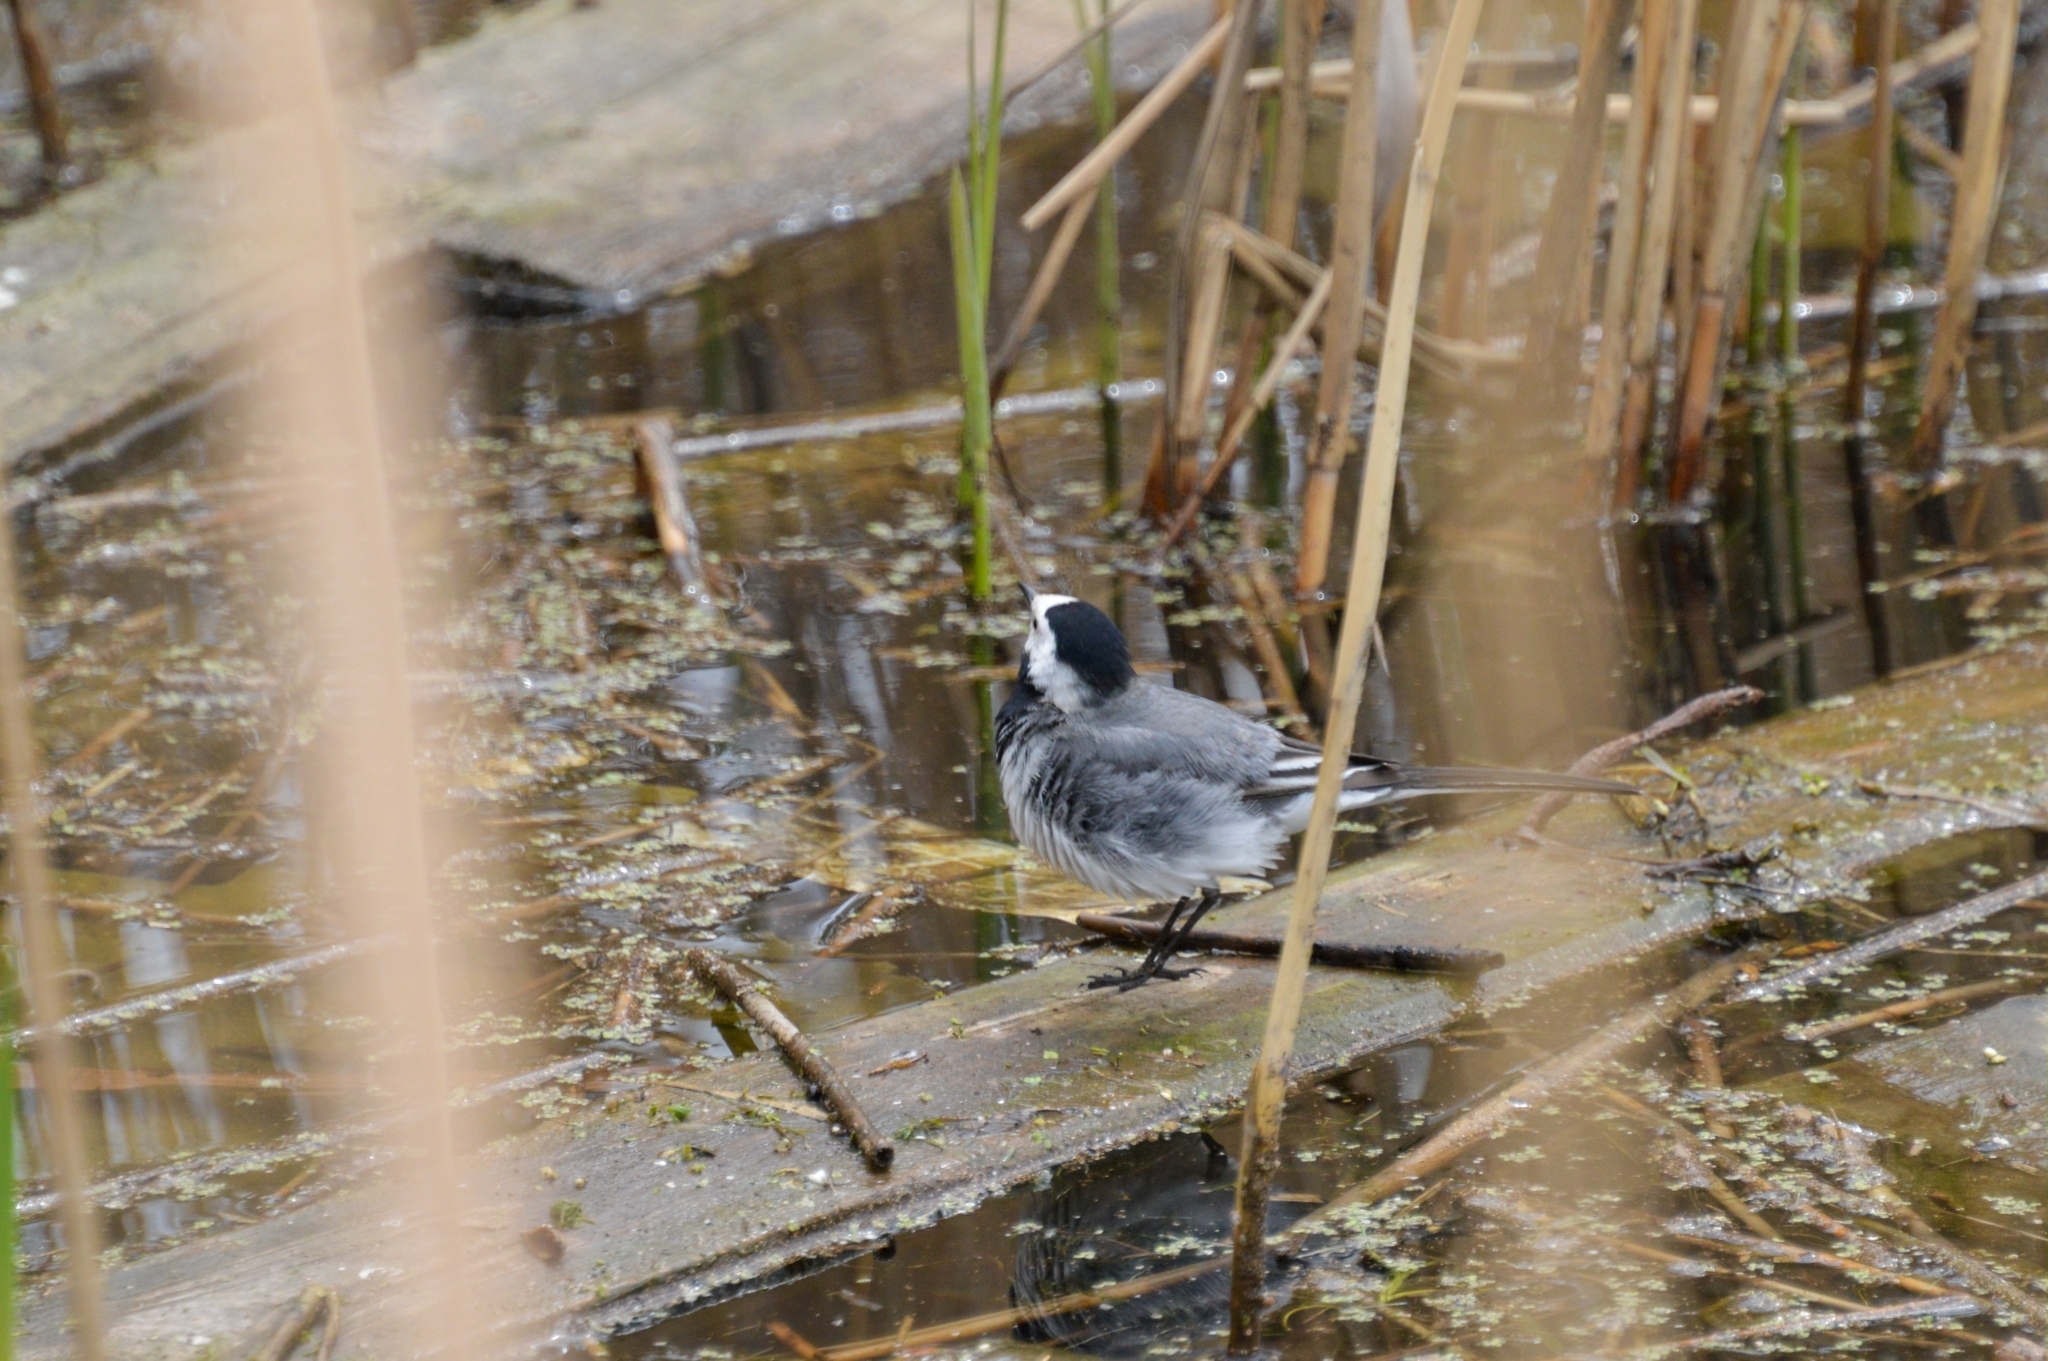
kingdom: Animalia
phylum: Chordata
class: Aves
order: Passeriformes
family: Motacillidae
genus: Motacilla
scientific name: Motacilla alba
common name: White wagtail
